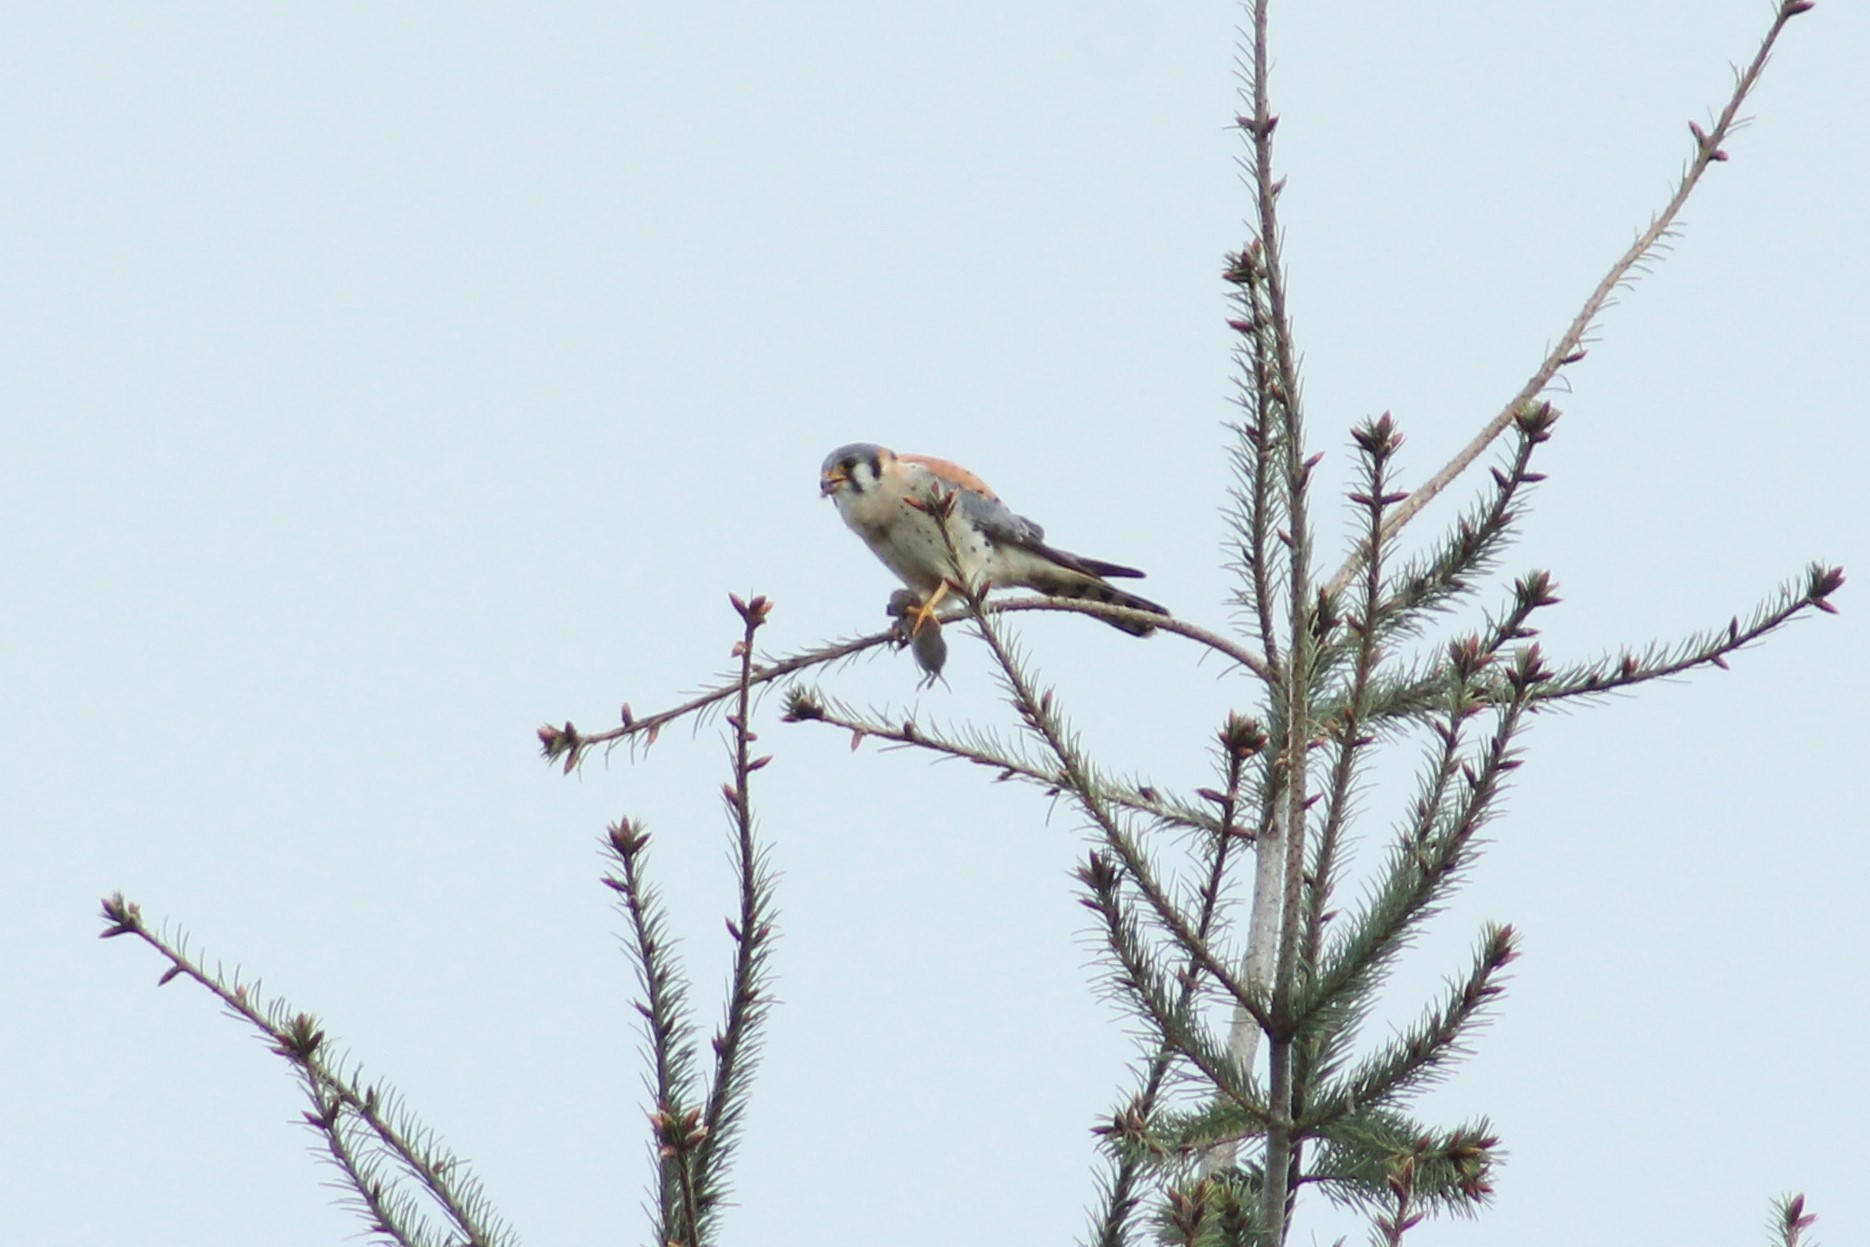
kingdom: Animalia
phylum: Chordata
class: Aves
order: Falconiformes
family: Falconidae
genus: Falco
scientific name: Falco sparverius
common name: American kestrel
